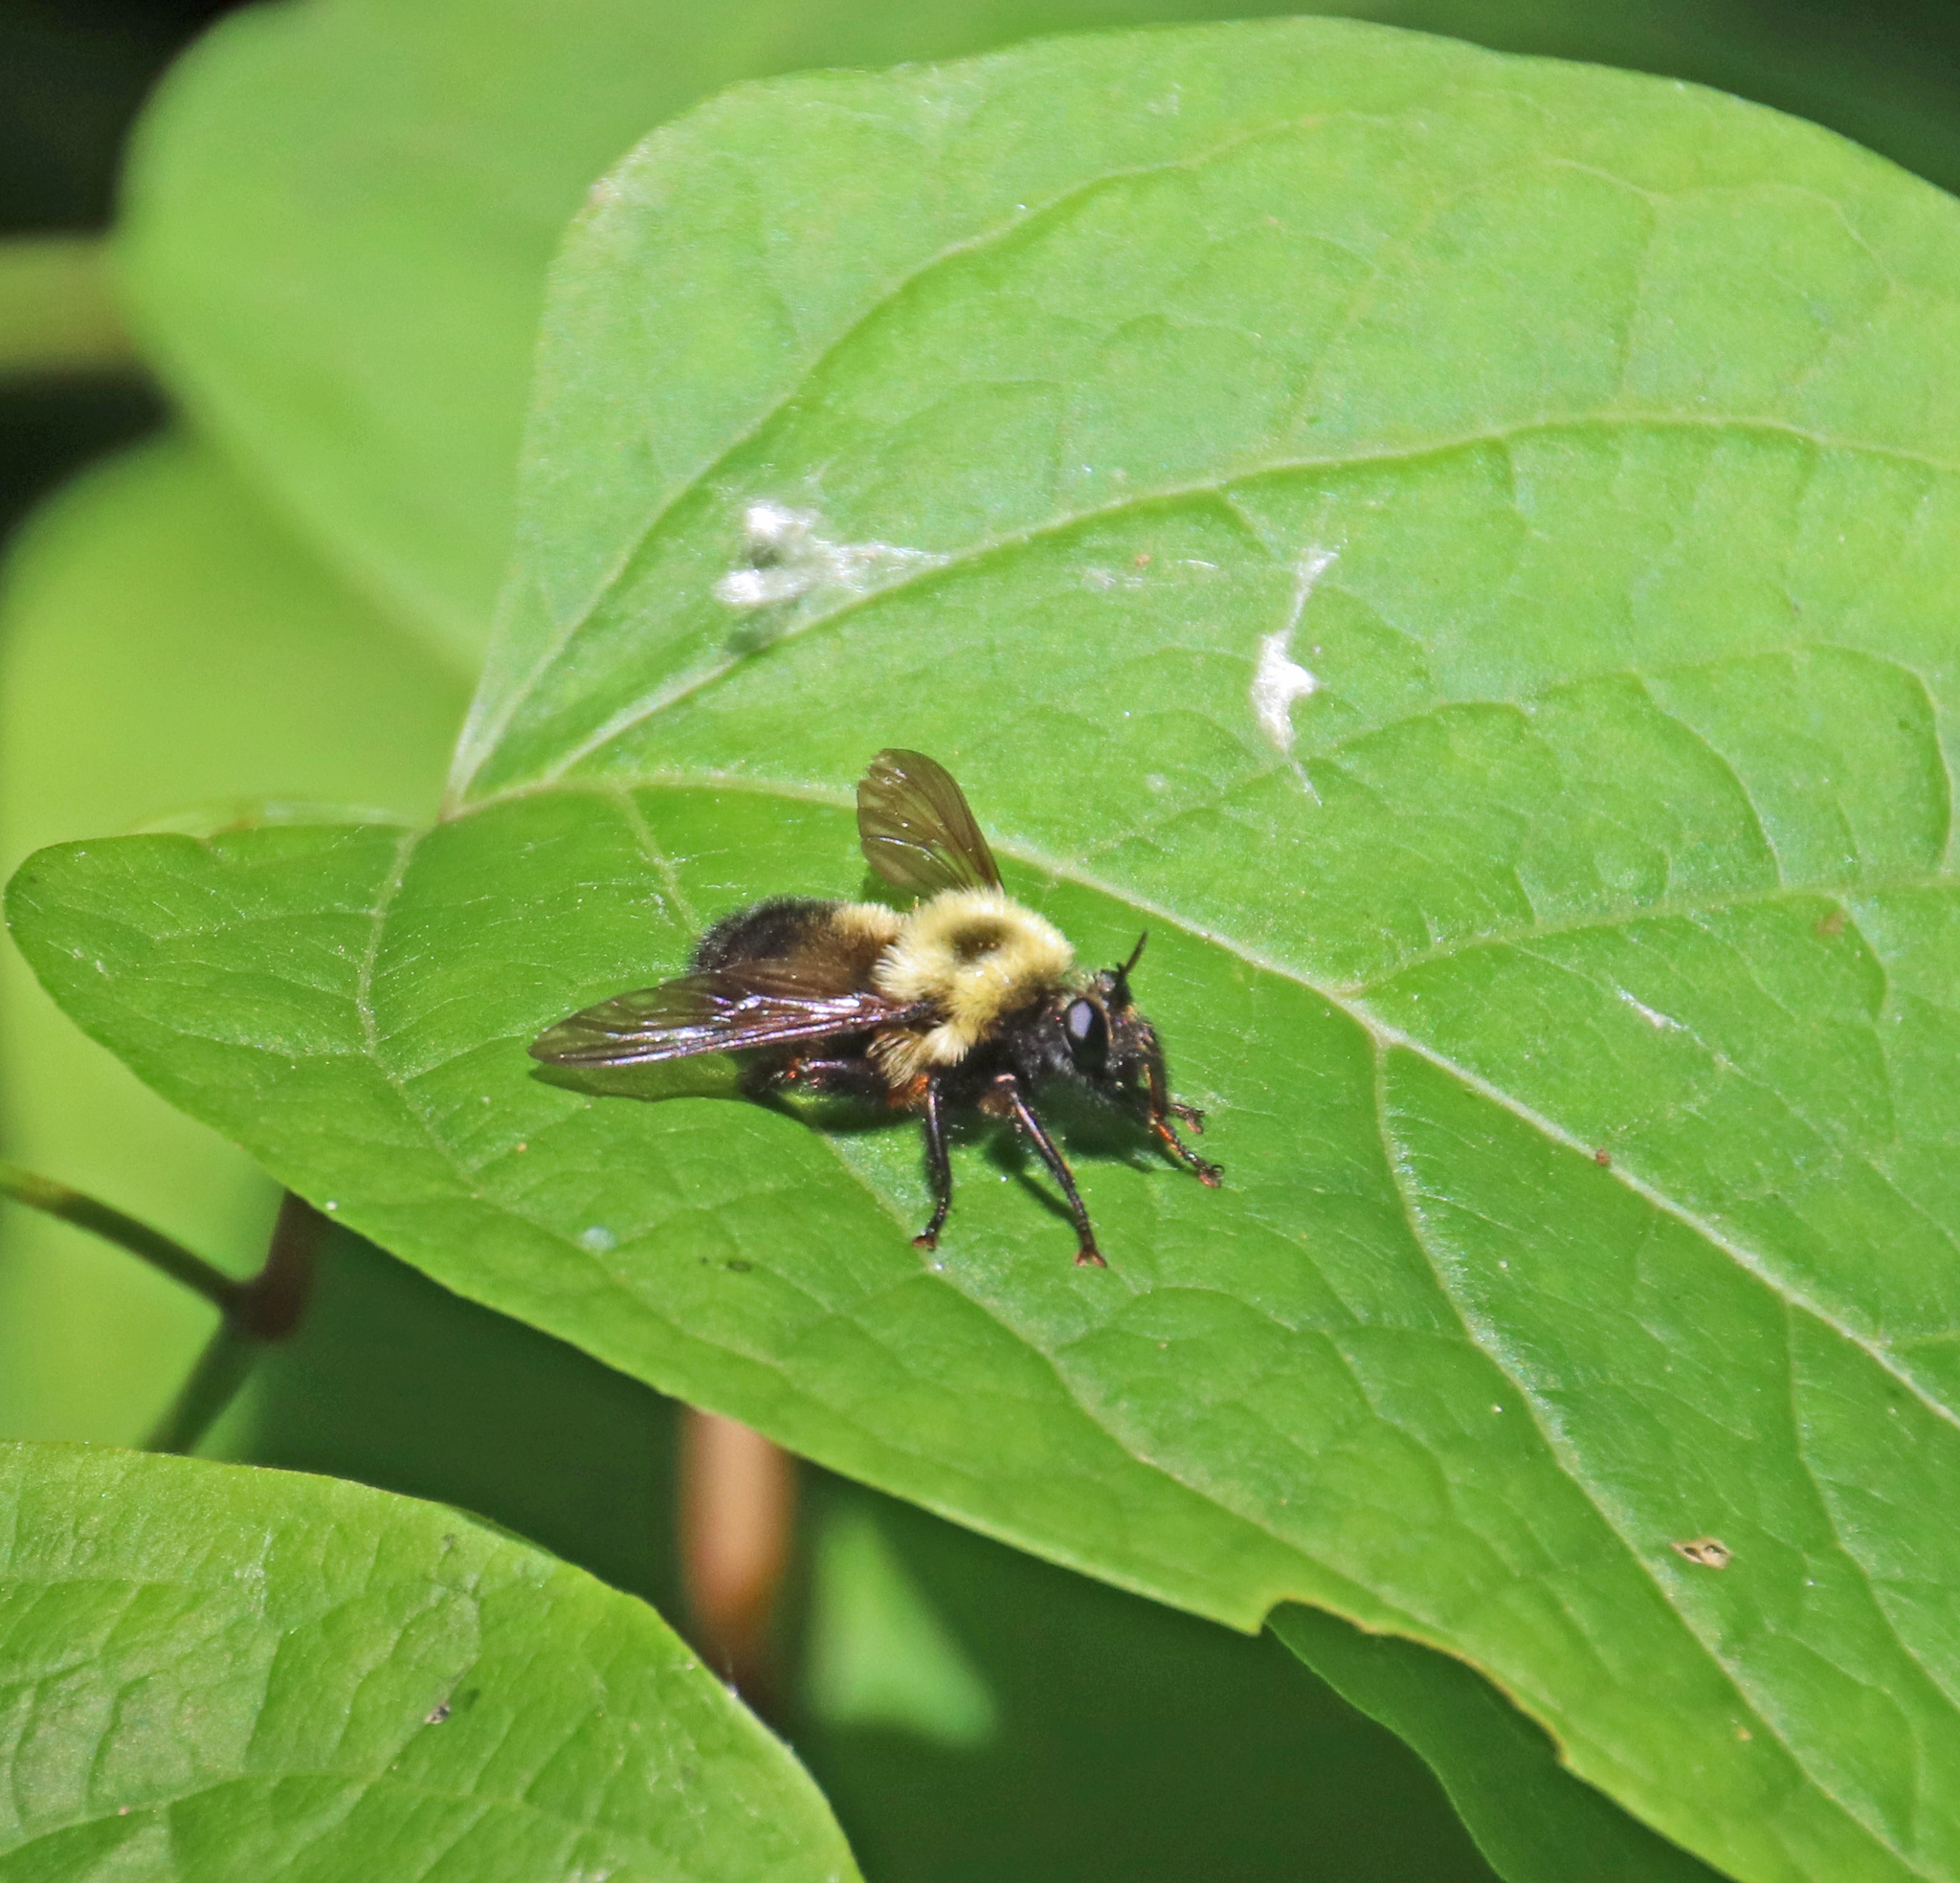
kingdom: Animalia
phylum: Arthropoda
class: Insecta
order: Diptera
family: Asilidae
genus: Laphria
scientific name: Laphria thoracica
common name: Bumble bee mimic robber fly
